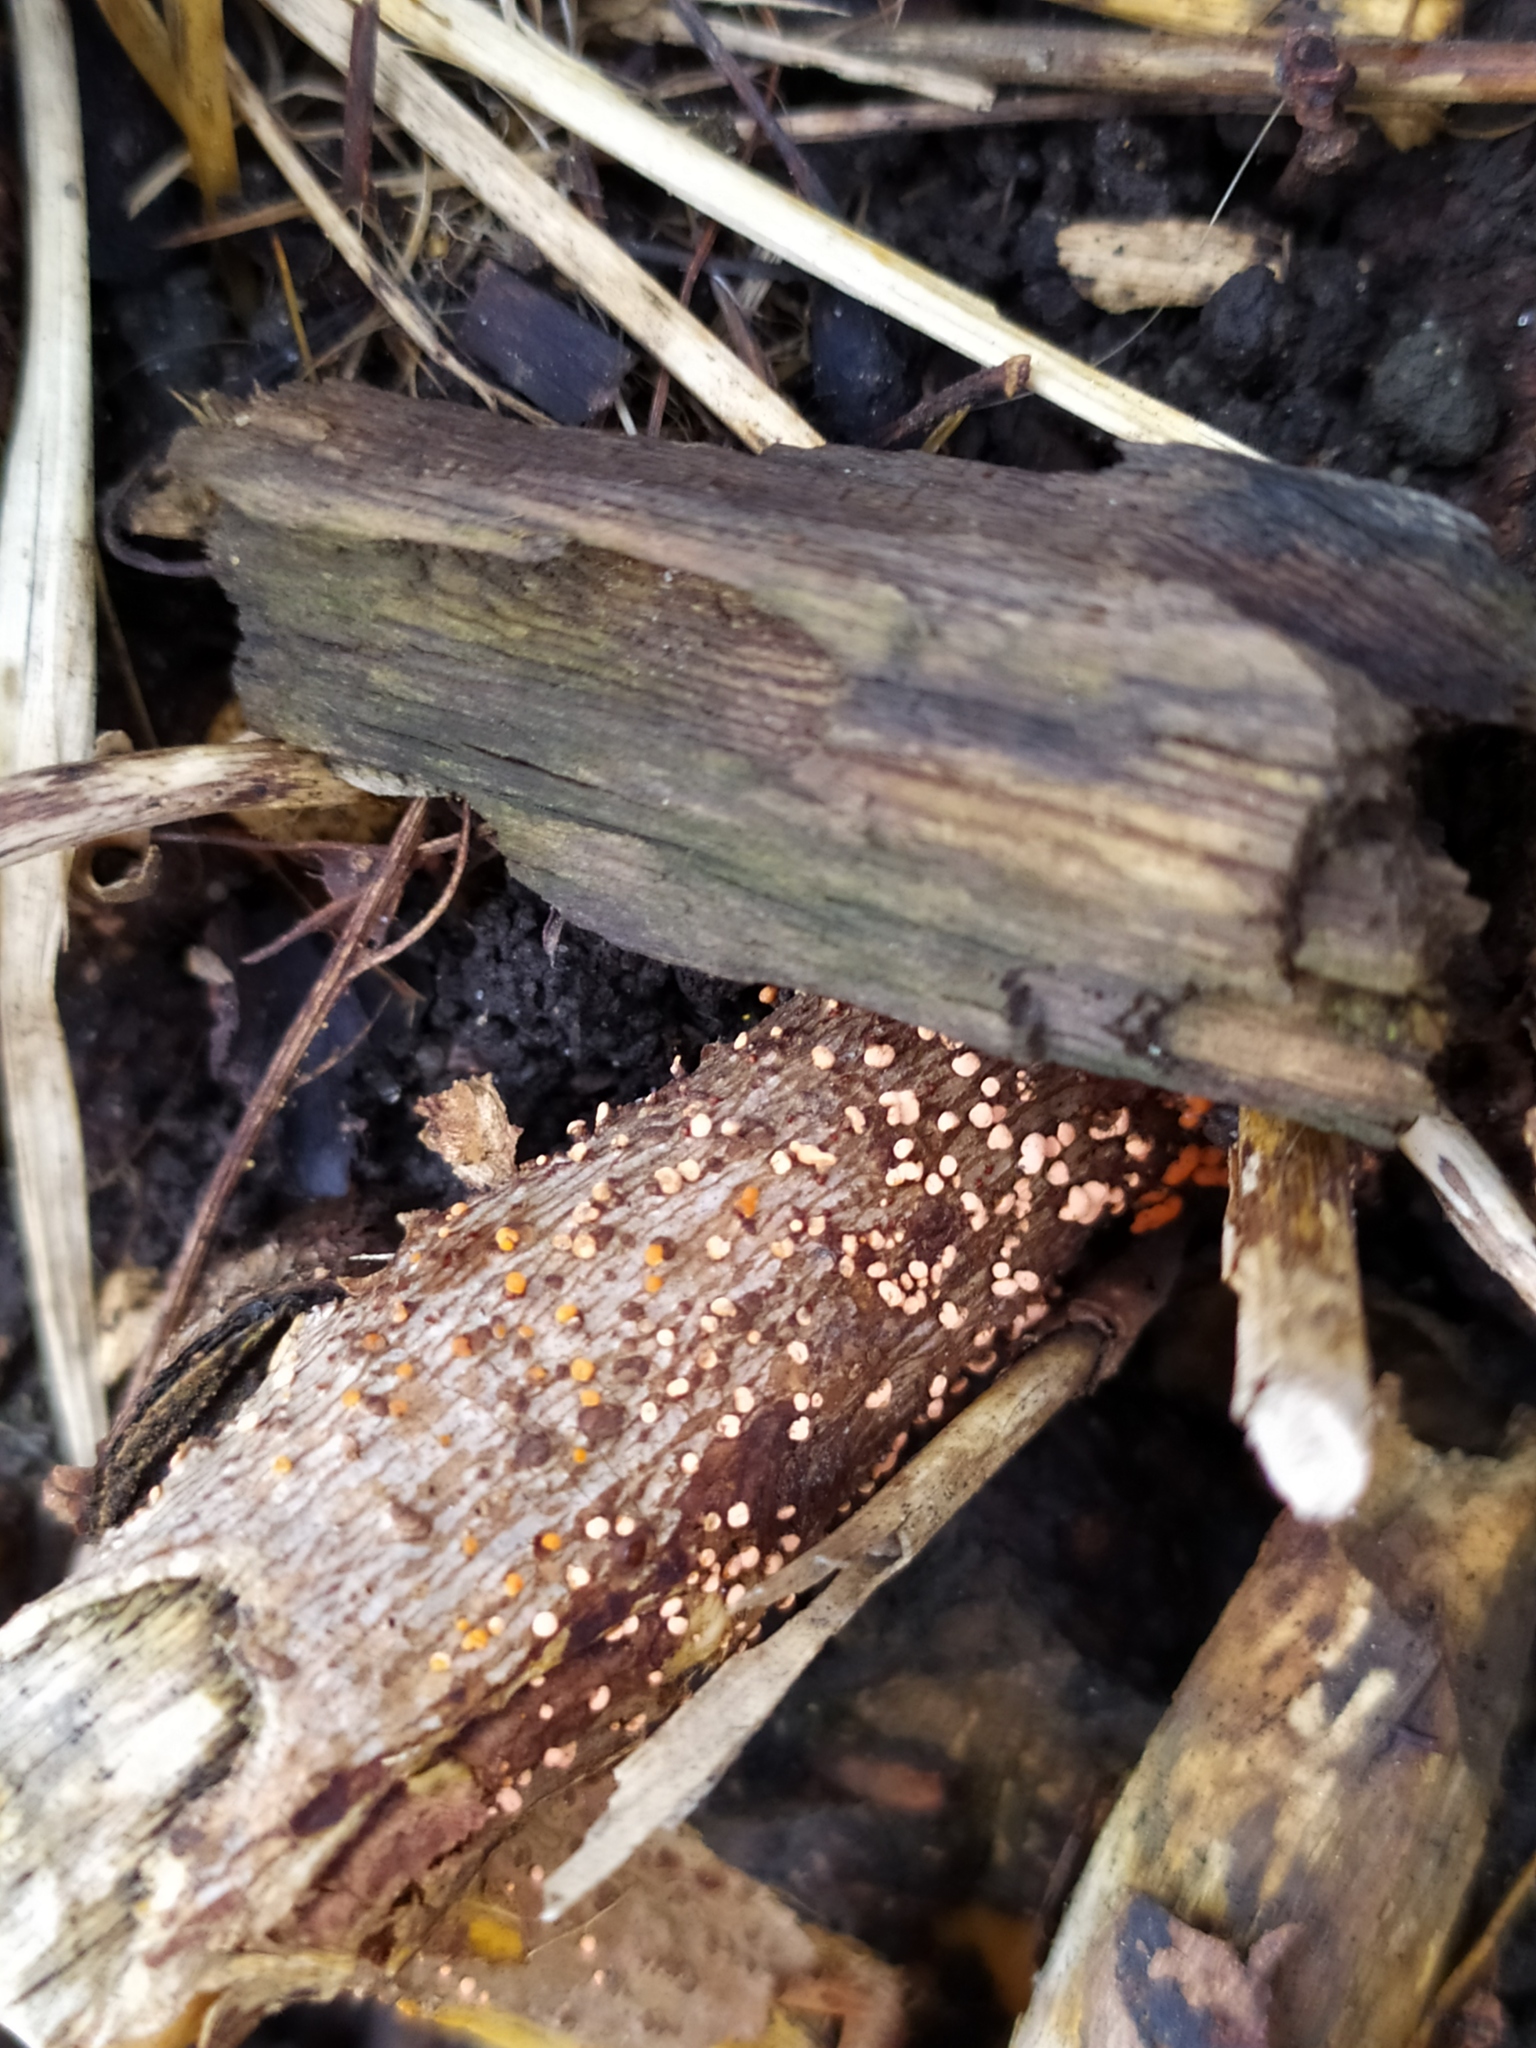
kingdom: Fungi
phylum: Ascomycota
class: Sordariomycetes
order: Hypocreales
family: Nectriaceae
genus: Nectria
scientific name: Nectria cinnabarina
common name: Coral spot
